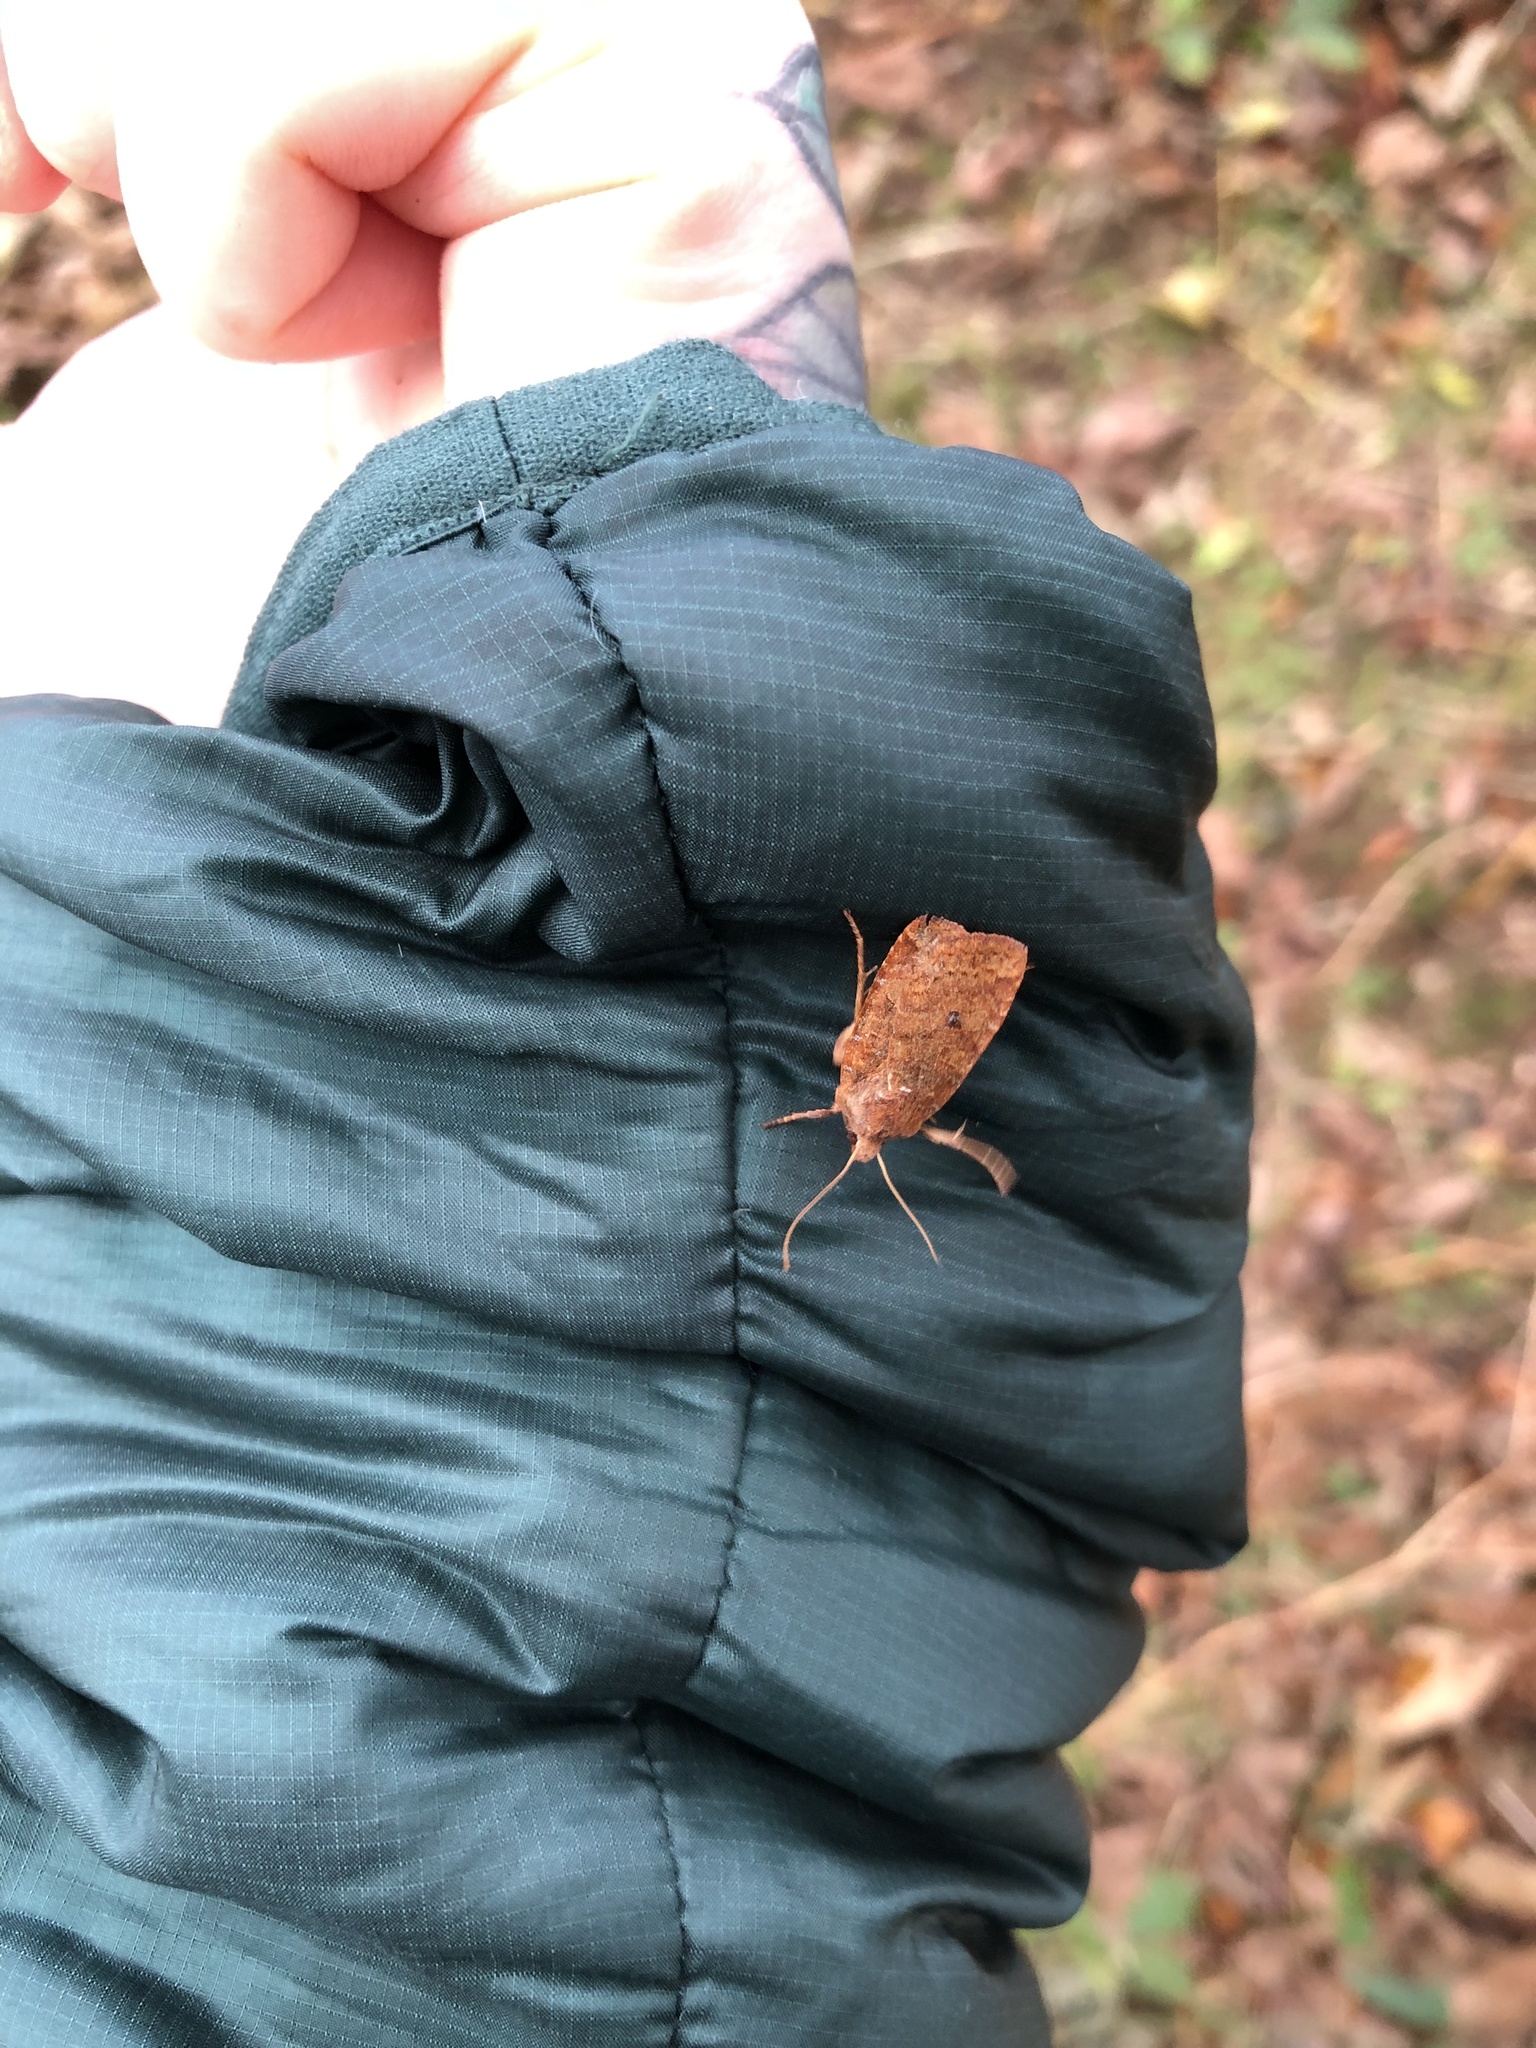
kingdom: Animalia
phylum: Arthropoda
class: Insecta
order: Lepidoptera
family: Noctuidae
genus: Conistra
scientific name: Conistra vaccinii
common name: Chestnut
